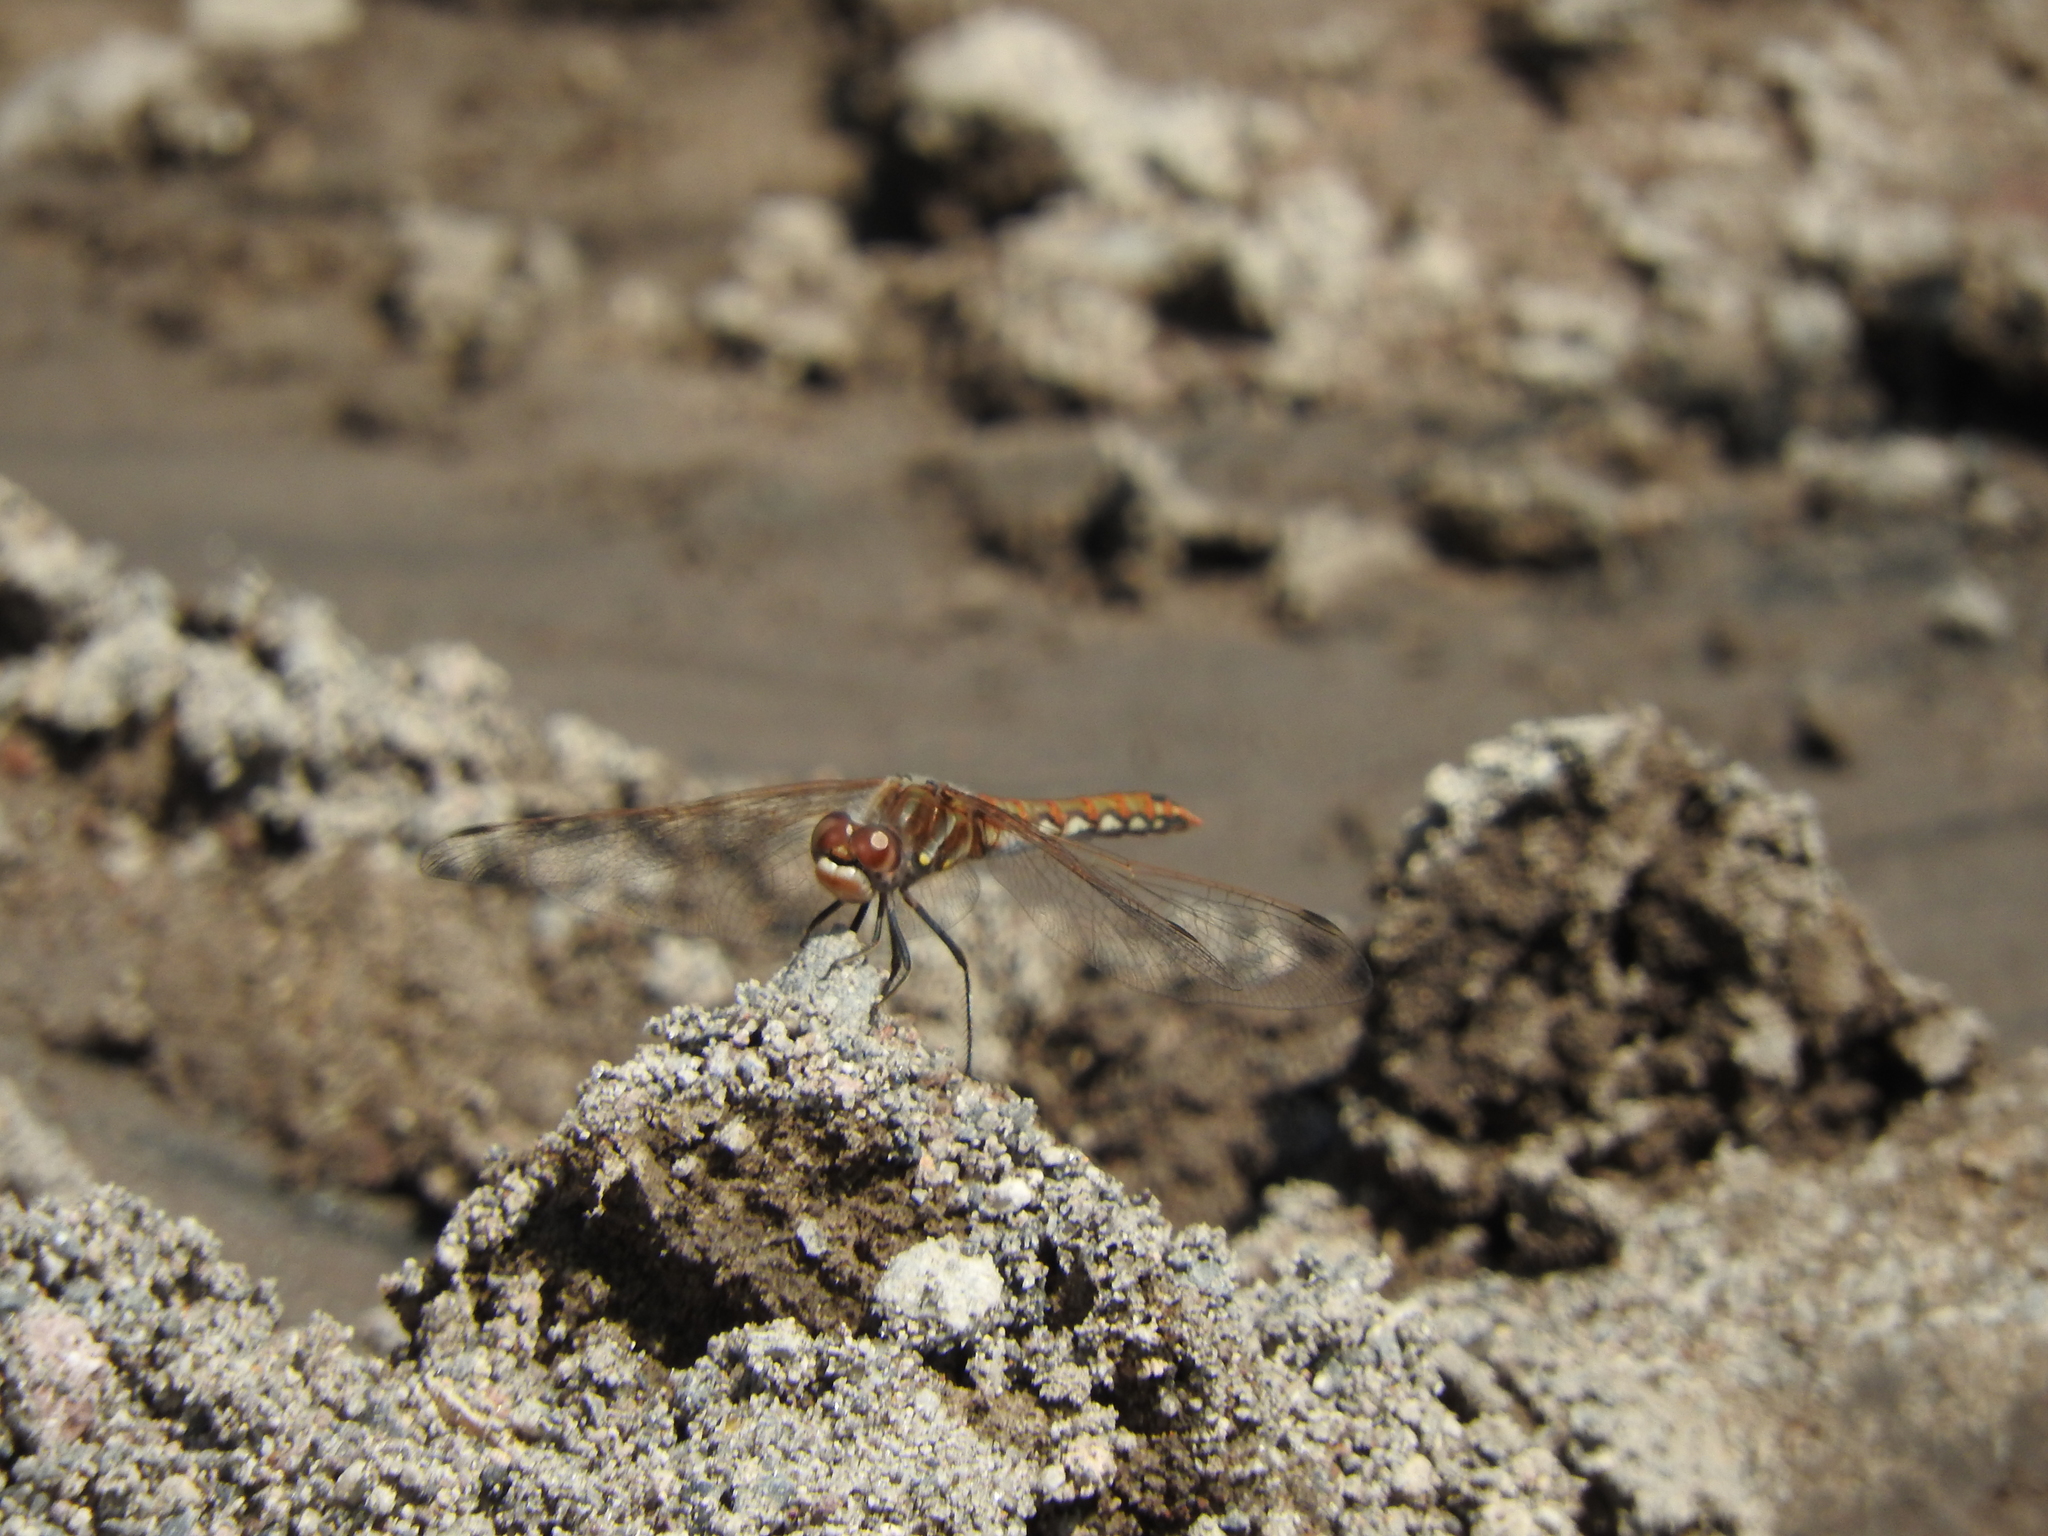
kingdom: Animalia
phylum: Arthropoda
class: Insecta
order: Odonata
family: Libellulidae
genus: Sympetrum
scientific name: Sympetrum corruptum
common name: Variegated meadowhawk
